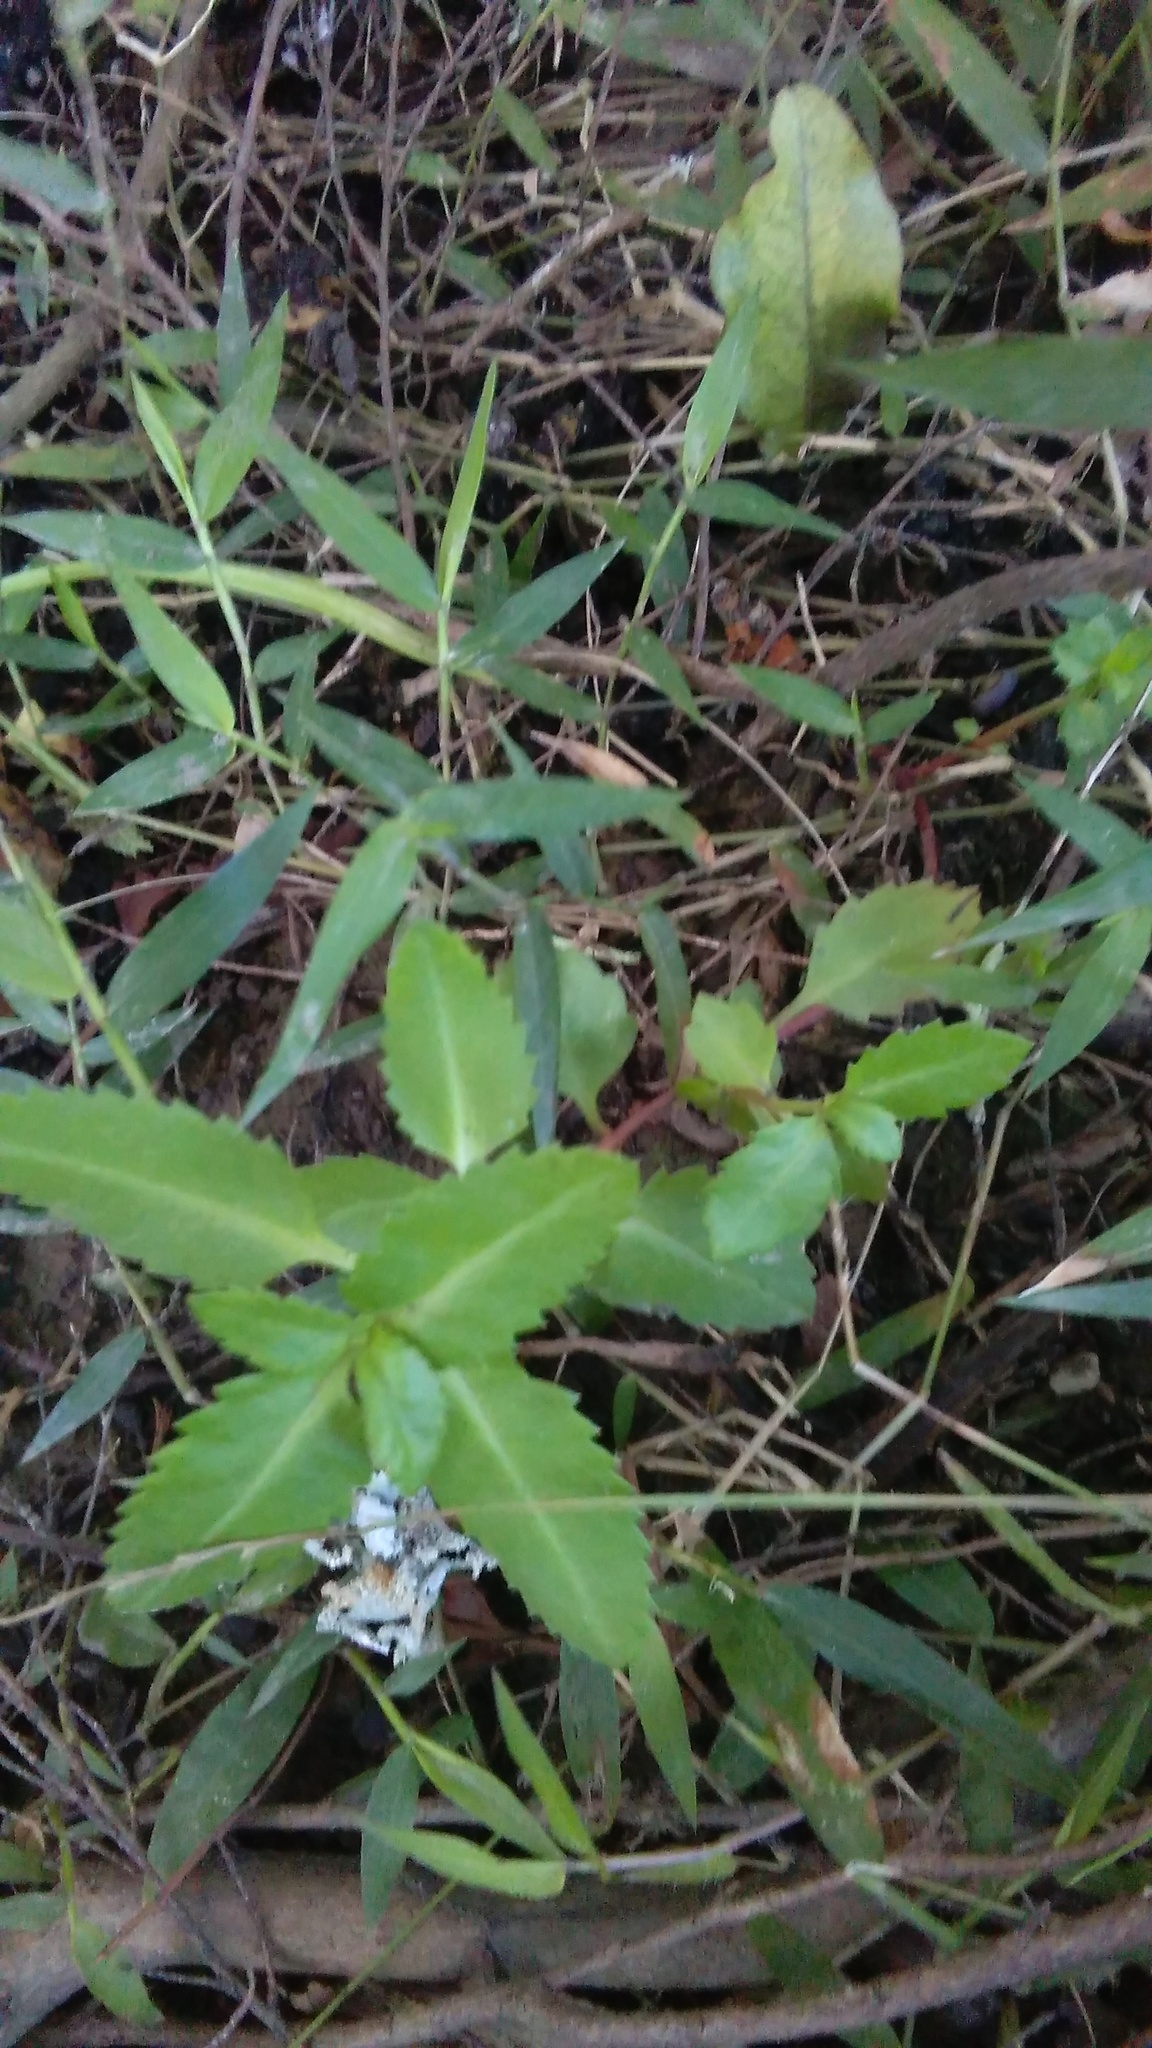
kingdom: Plantae
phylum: Tracheophyta
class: Magnoliopsida
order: Saxifragales
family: Haloragaceae
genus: Haloragis
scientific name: Haloragis erecta
